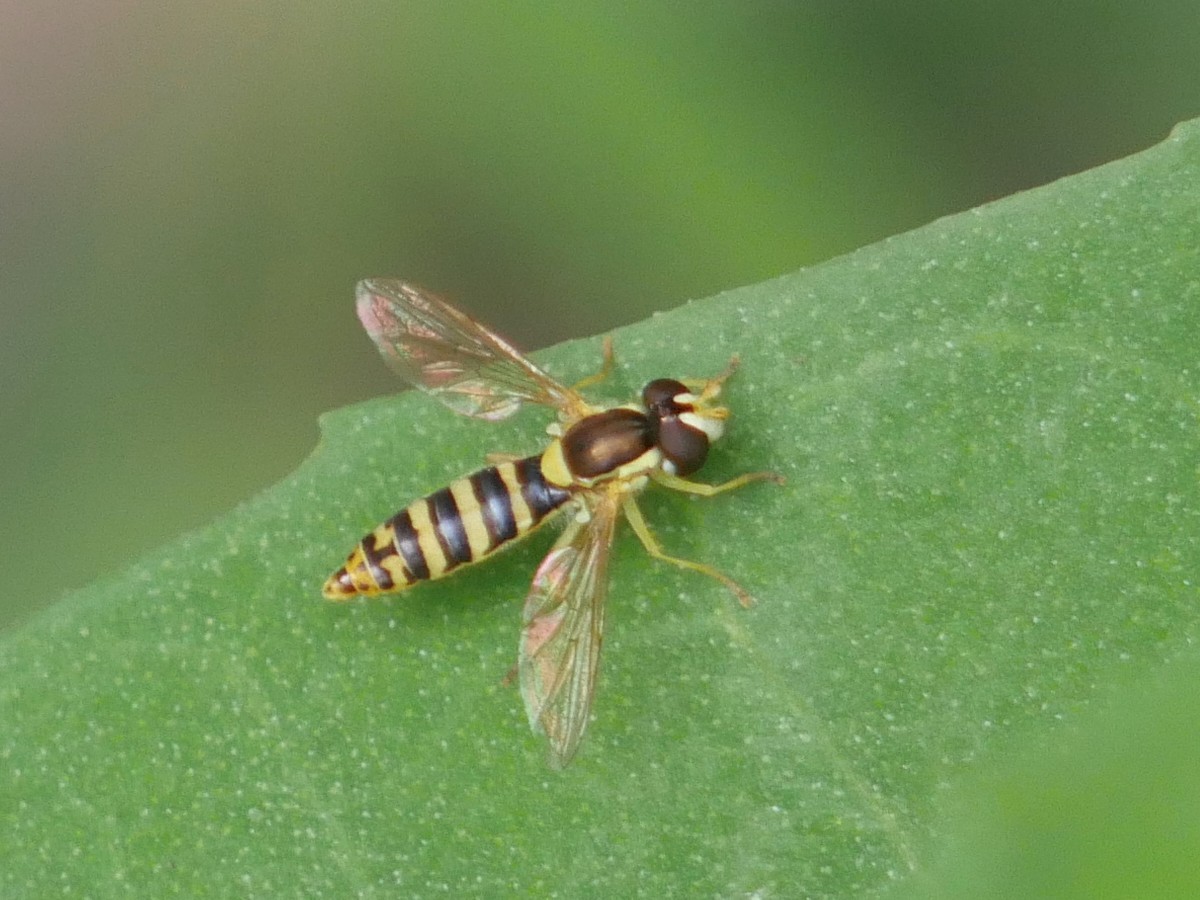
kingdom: Animalia
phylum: Arthropoda
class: Insecta
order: Diptera
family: Syrphidae
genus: Sphaerophoria
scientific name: Sphaerophoria
